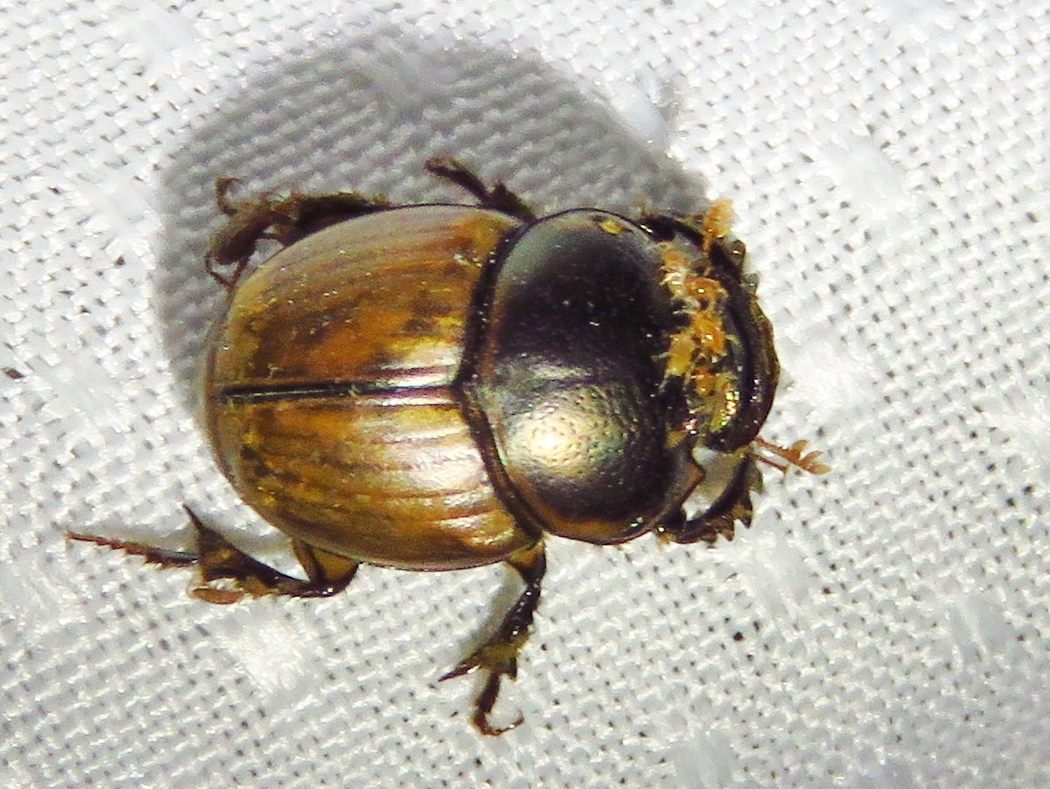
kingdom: Animalia
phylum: Arthropoda
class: Insecta
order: Coleoptera
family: Scarabaeidae
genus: Digitonthophagus
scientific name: Digitonthophagus gazella
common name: Brown dung beetle
